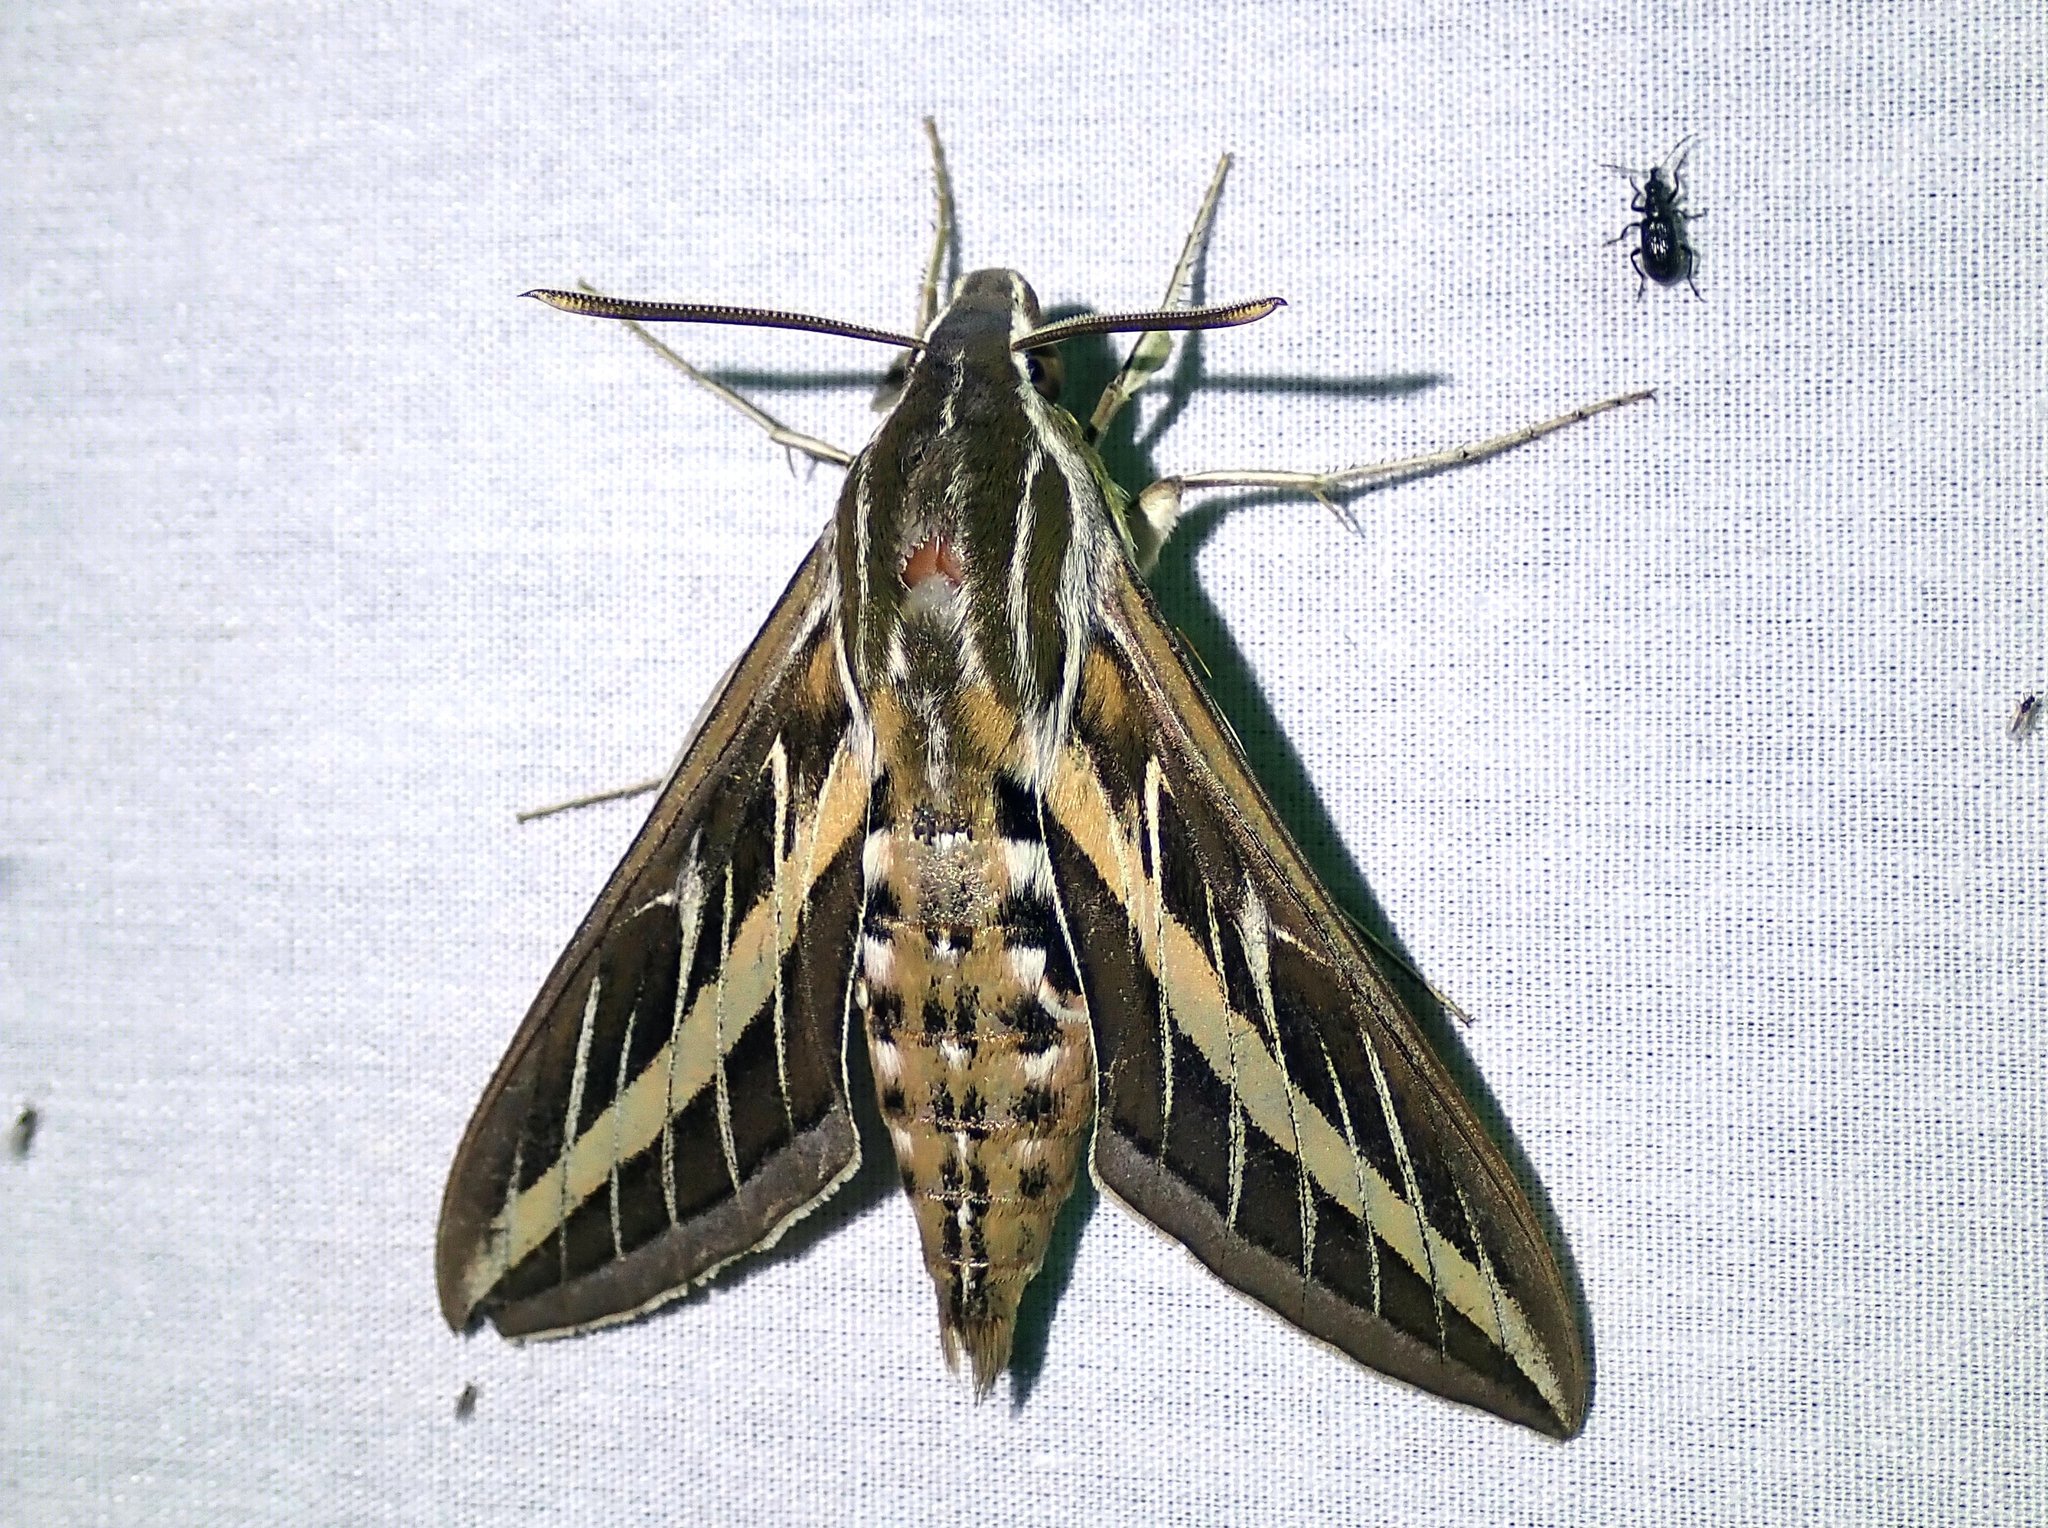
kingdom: Animalia
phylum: Arthropoda
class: Insecta
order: Lepidoptera
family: Sphingidae
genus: Hyles
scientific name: Hyles lineata
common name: White-lined sphinx
